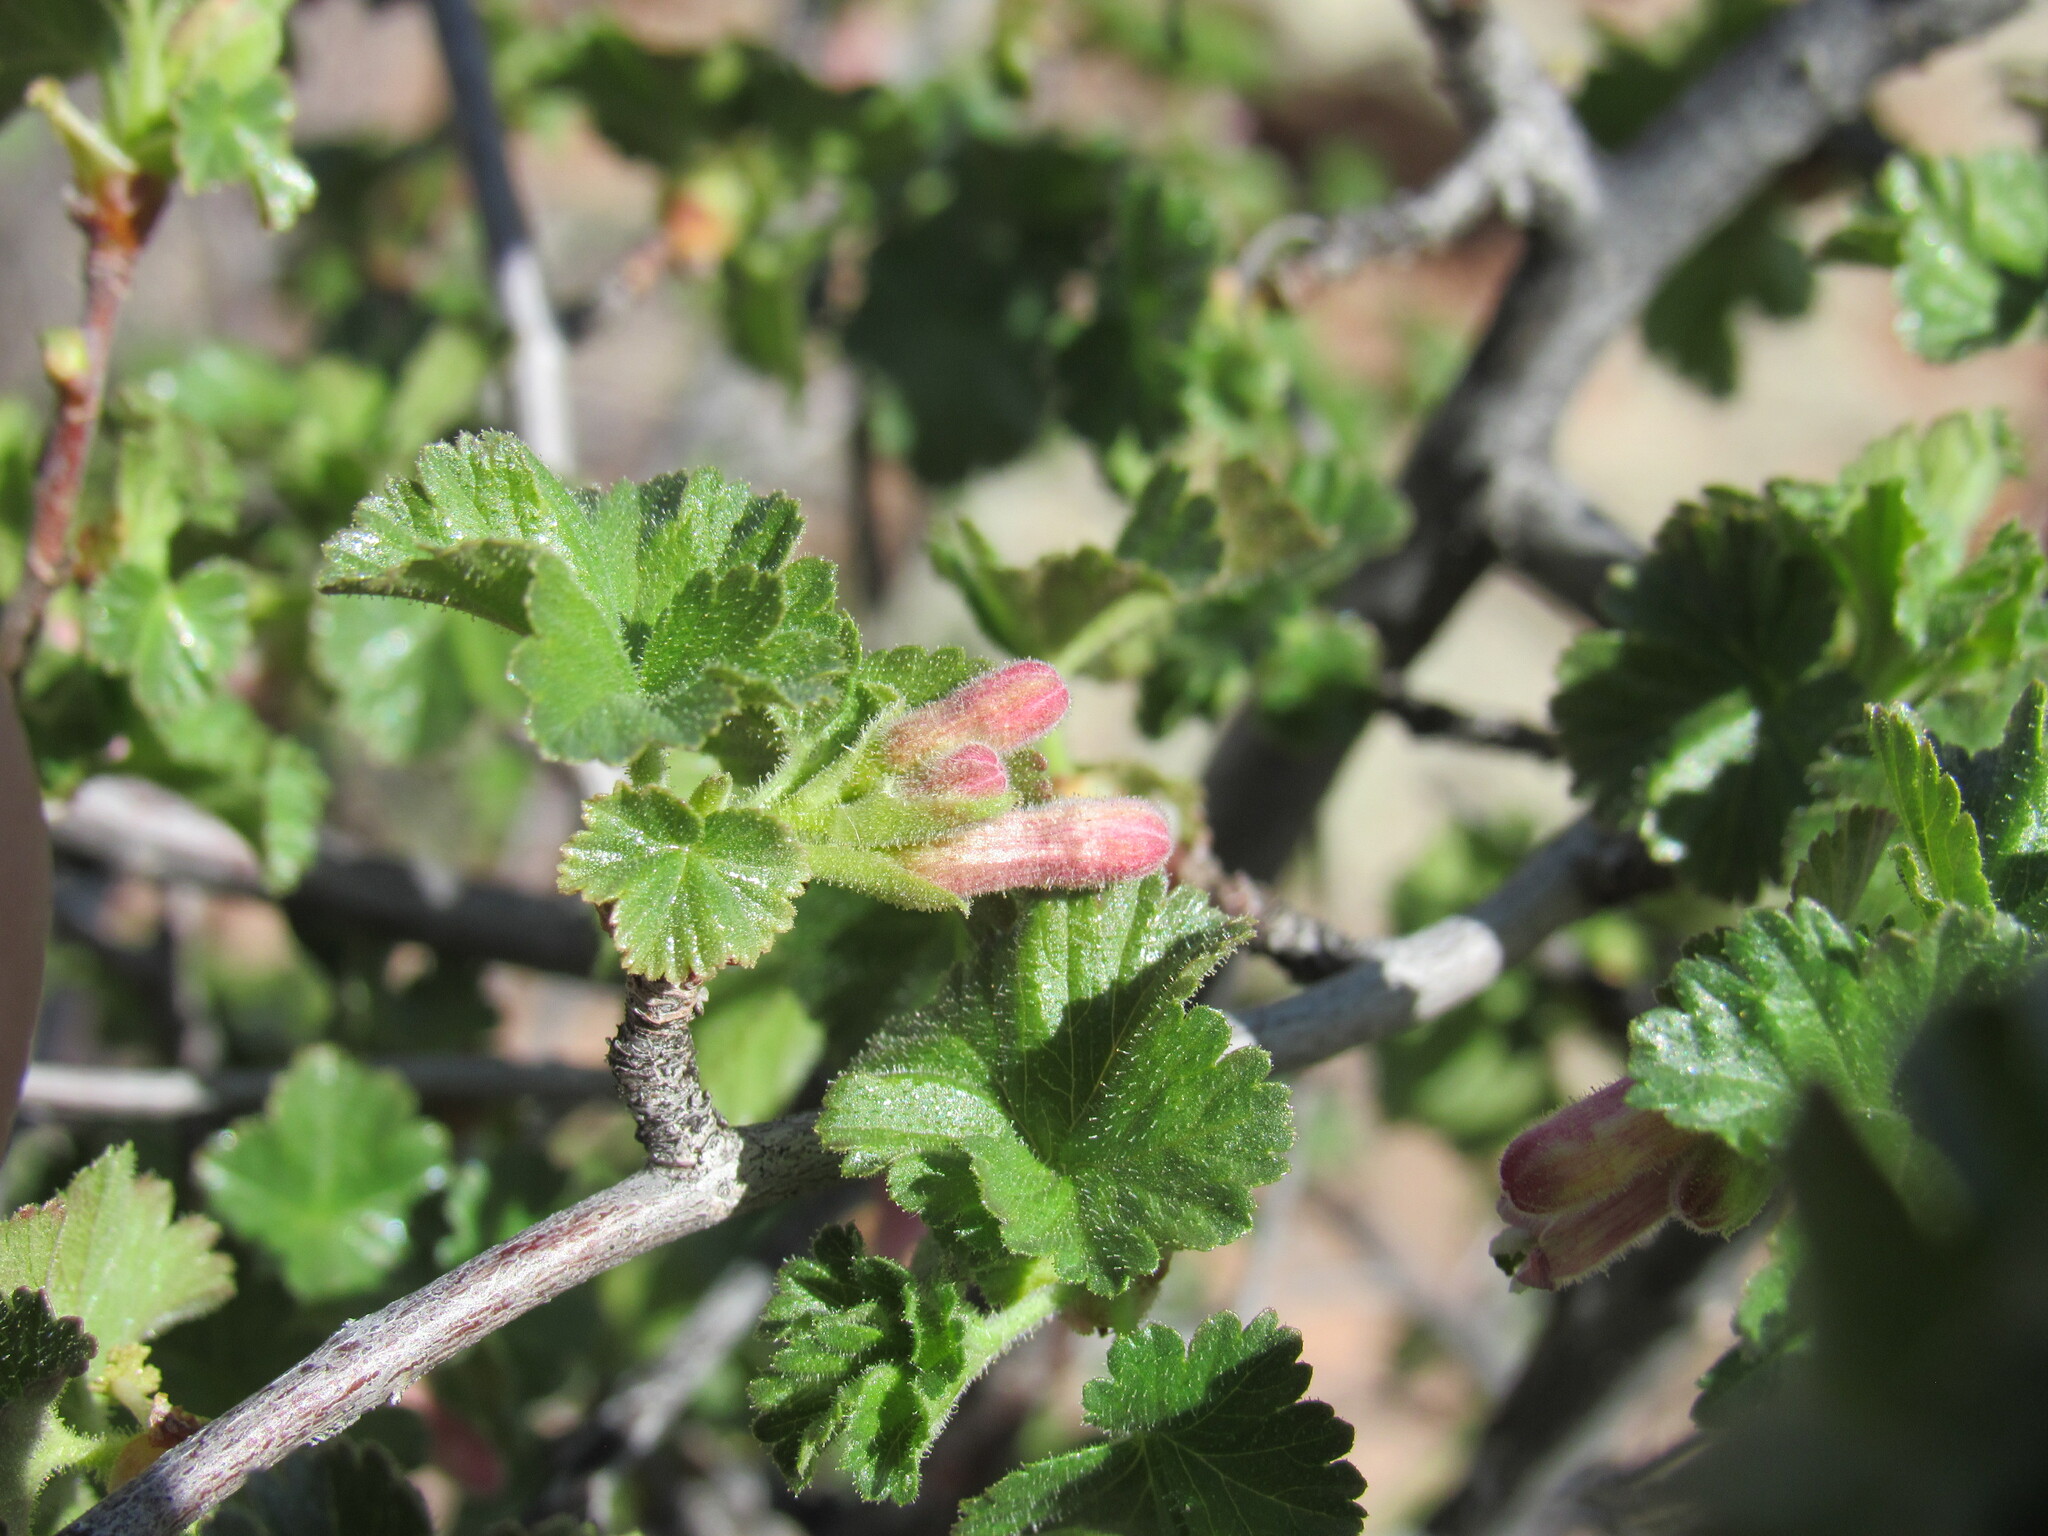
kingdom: Plantae
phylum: Tracheophyta
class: Magnoliopsida
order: Saxifragales
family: Grossulariaceae
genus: Ribes
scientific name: Ribes cereum
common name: Wax currant
